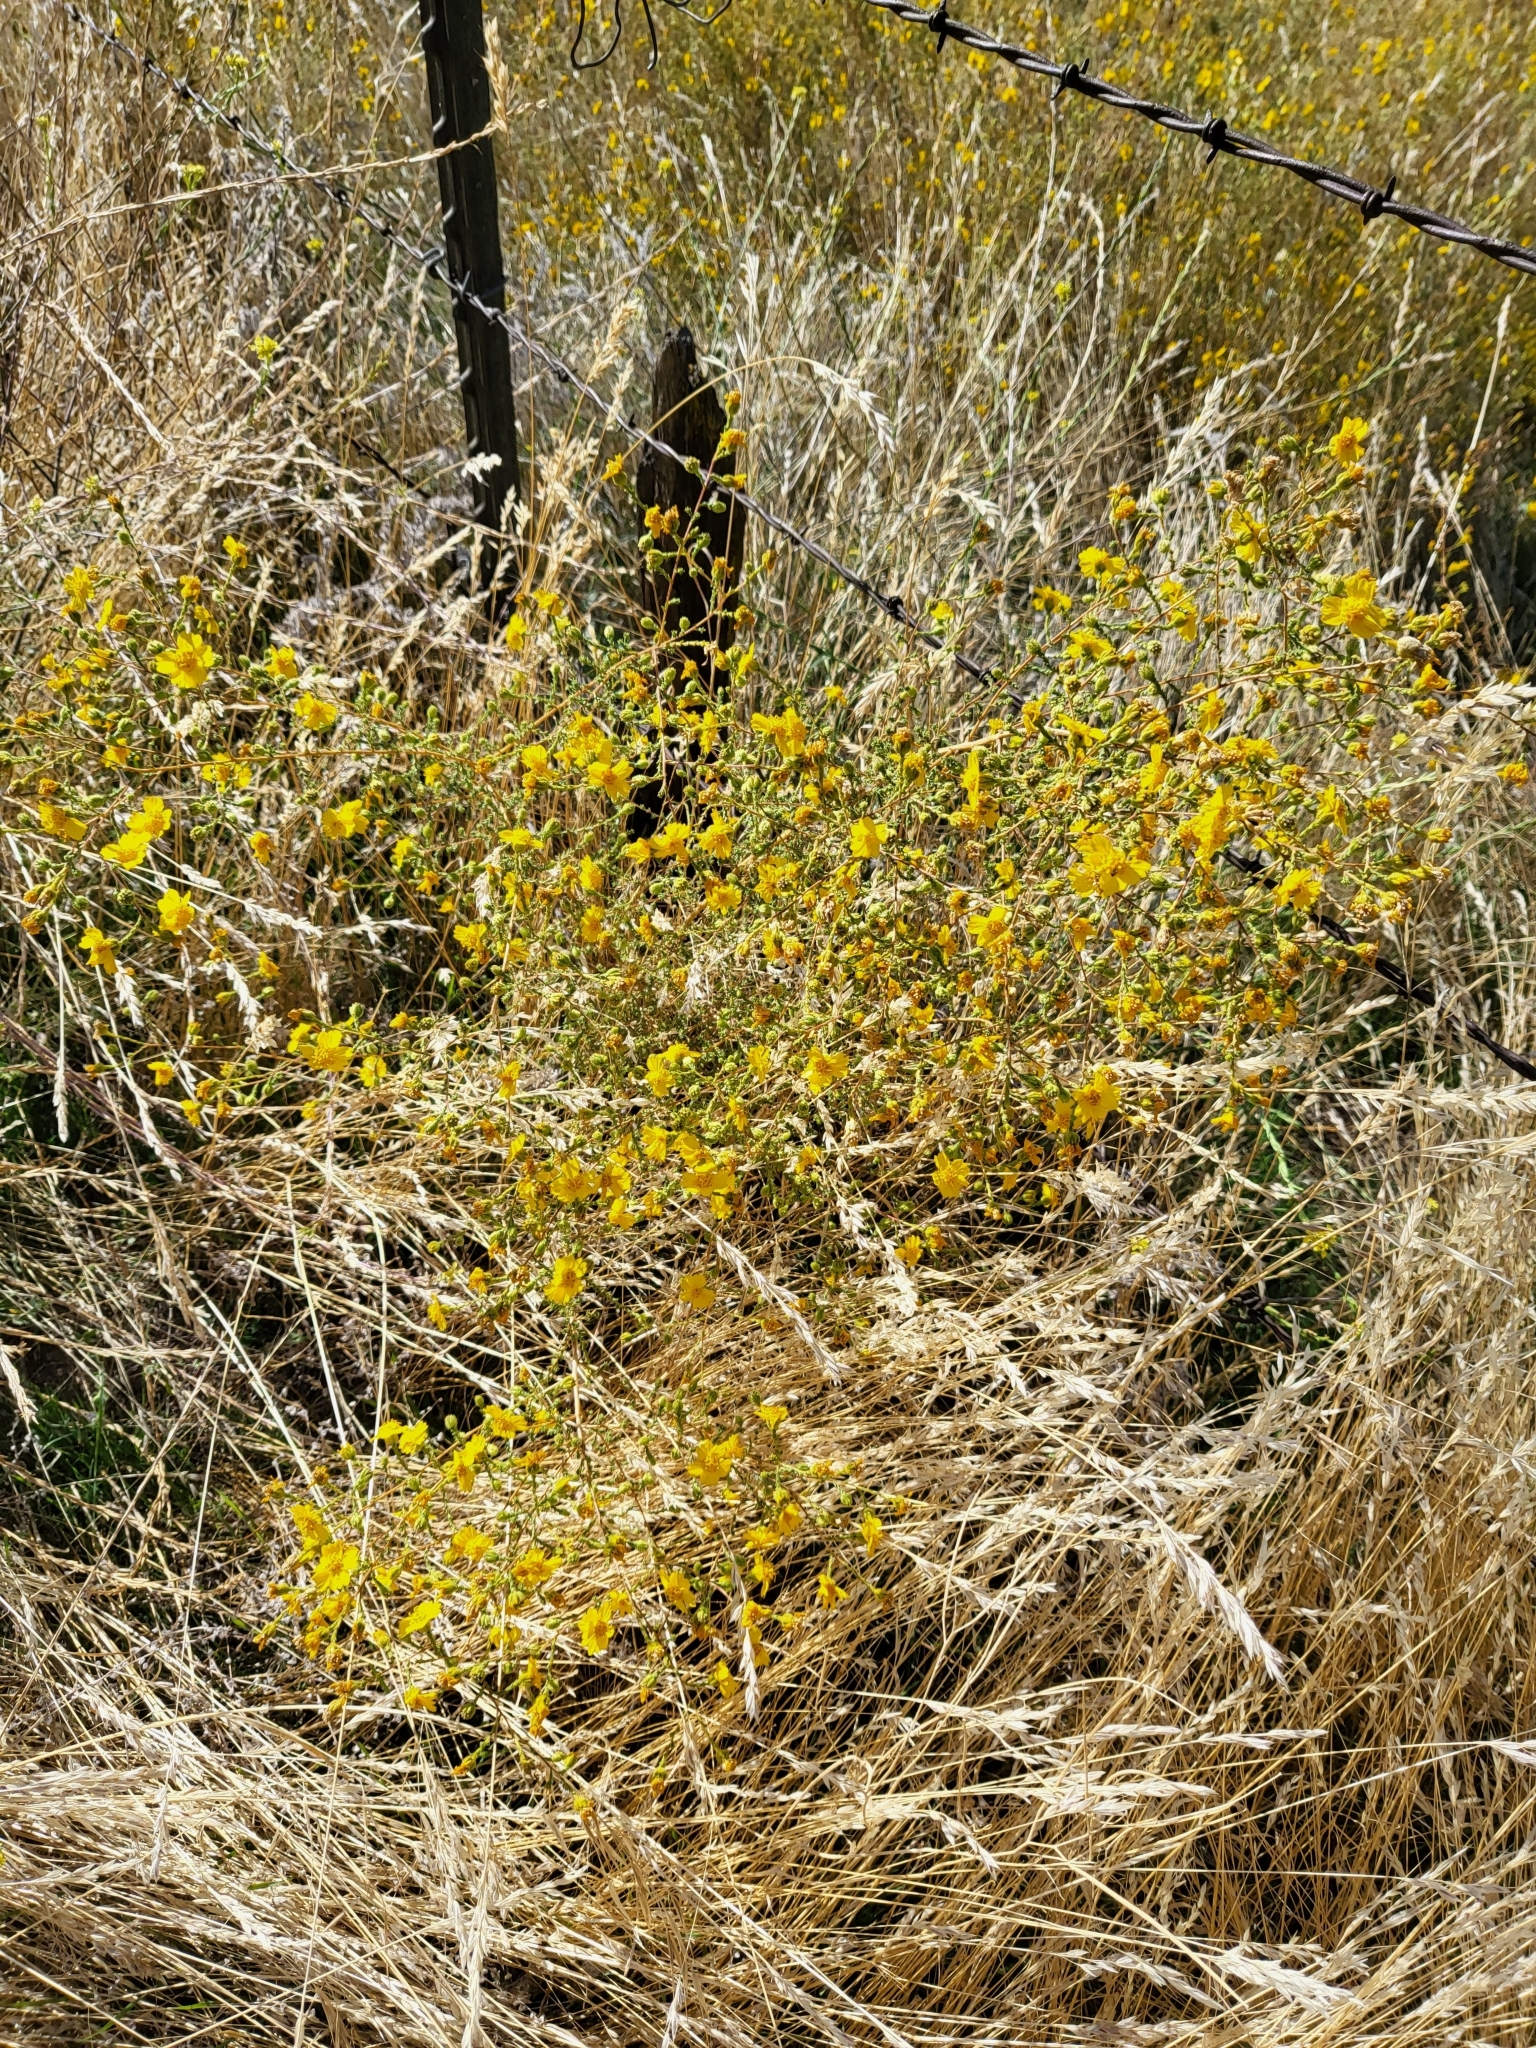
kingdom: Plantae
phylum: Tracheophyta
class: Magnoliopsida
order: Asterales
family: Asteraceae
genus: Holocarpha
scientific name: Holocarpha heermannii
